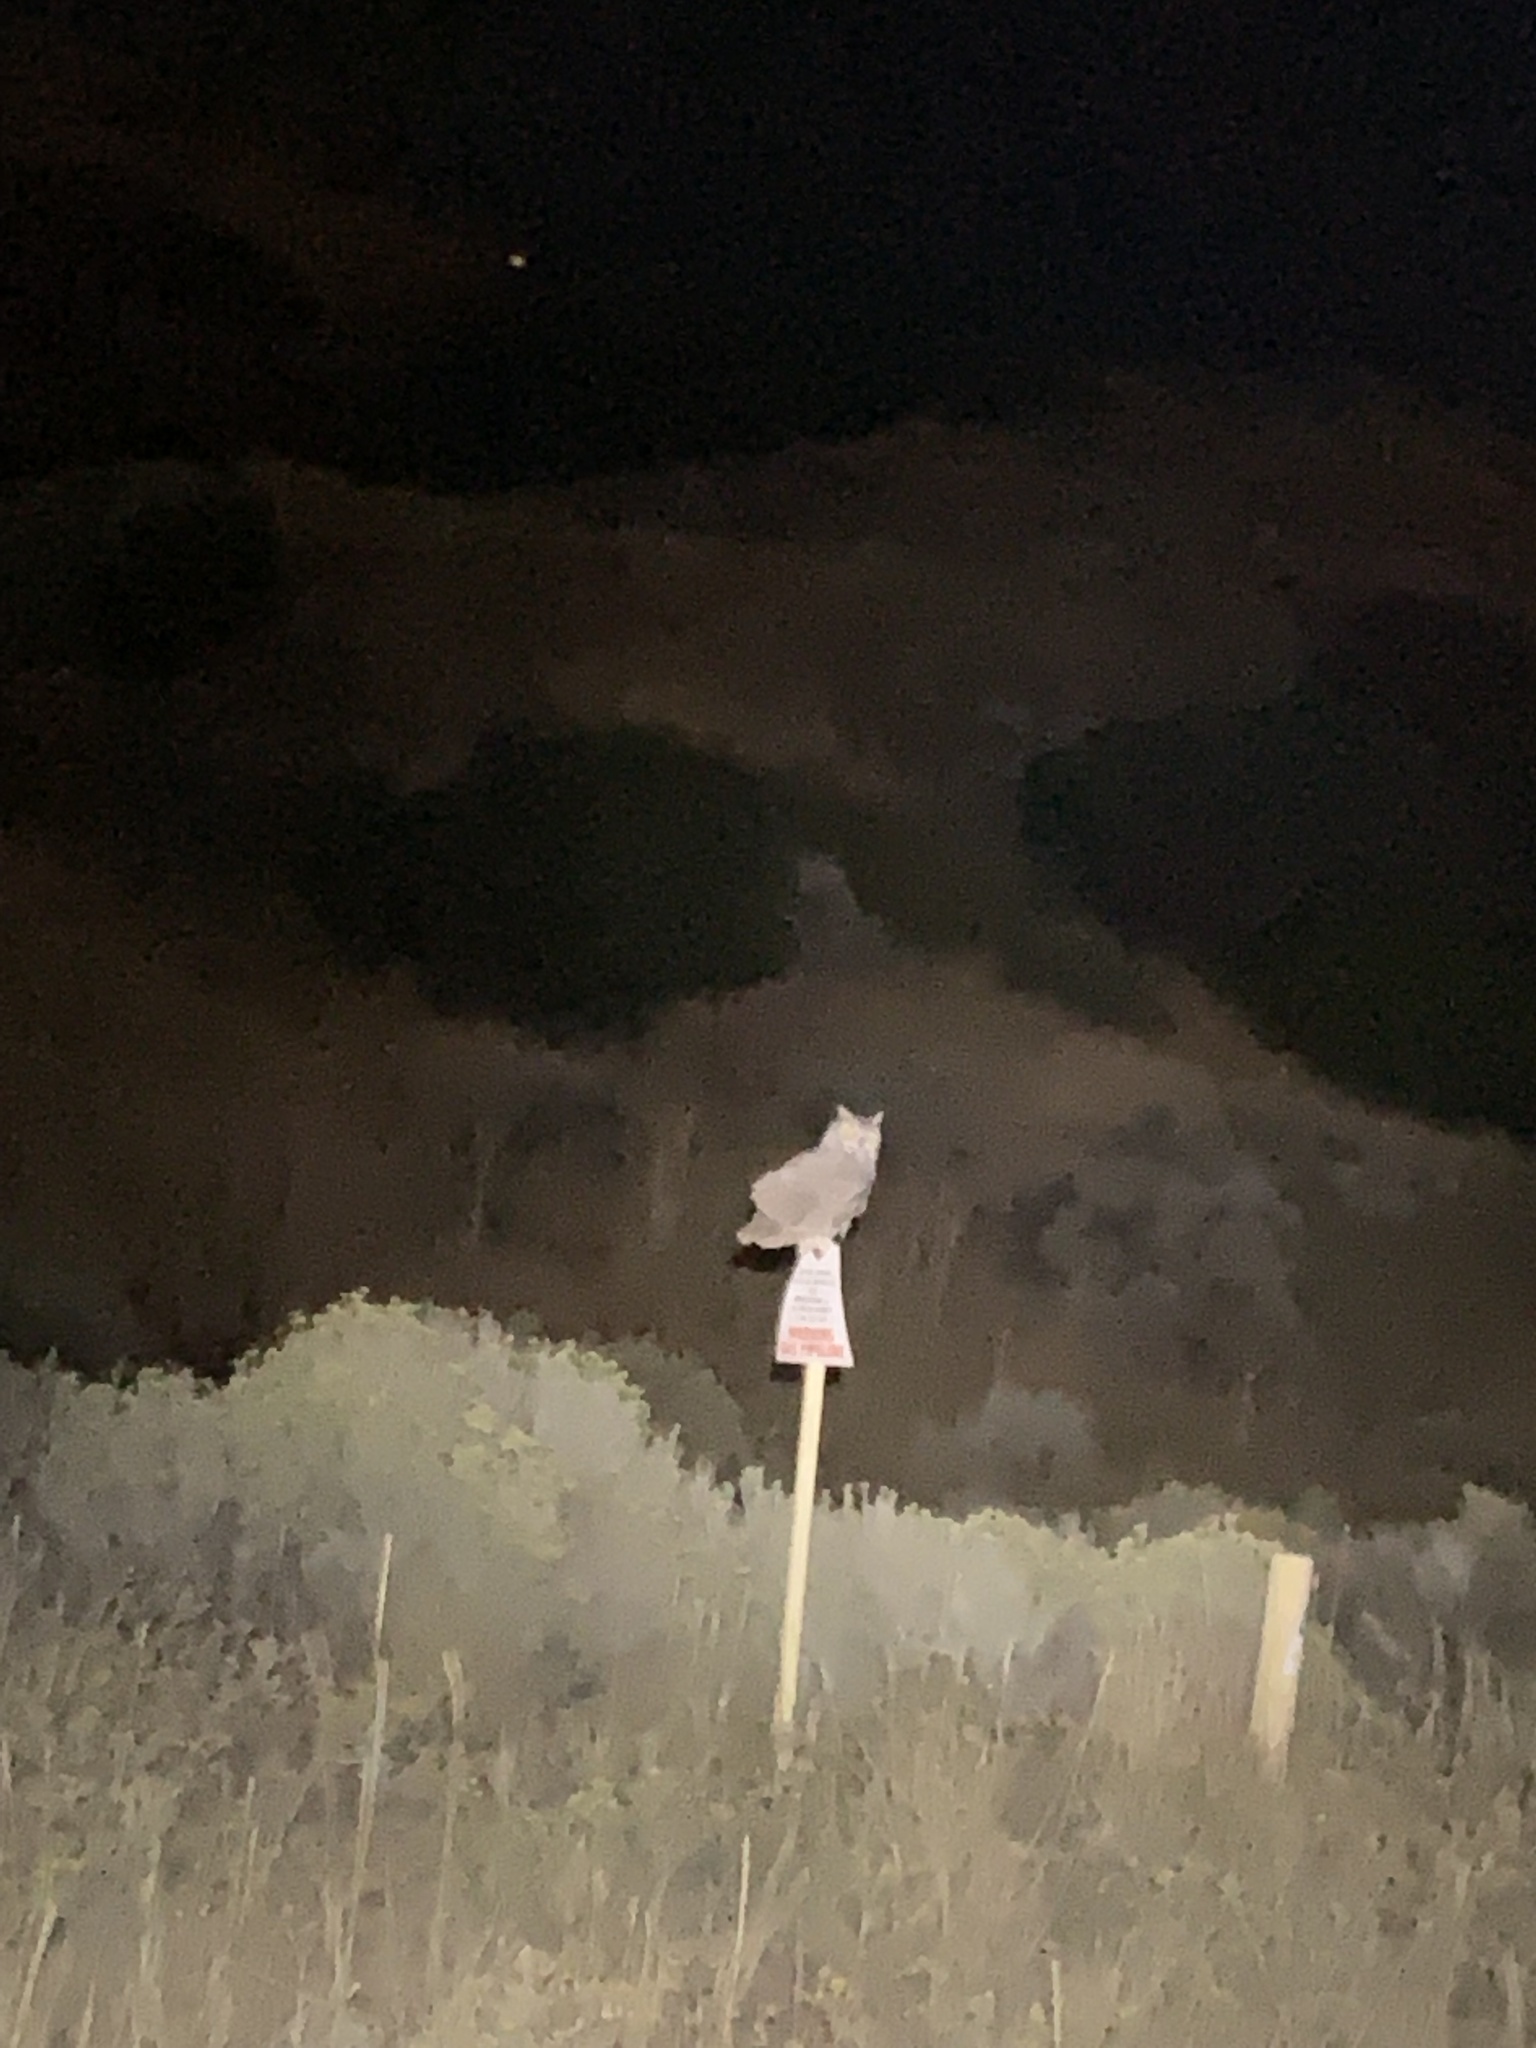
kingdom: Animalia
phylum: Chordata
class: Aves
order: Strigiformes
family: Strigidae
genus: Bubo
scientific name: Bubo virginianus
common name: Great horned owl
